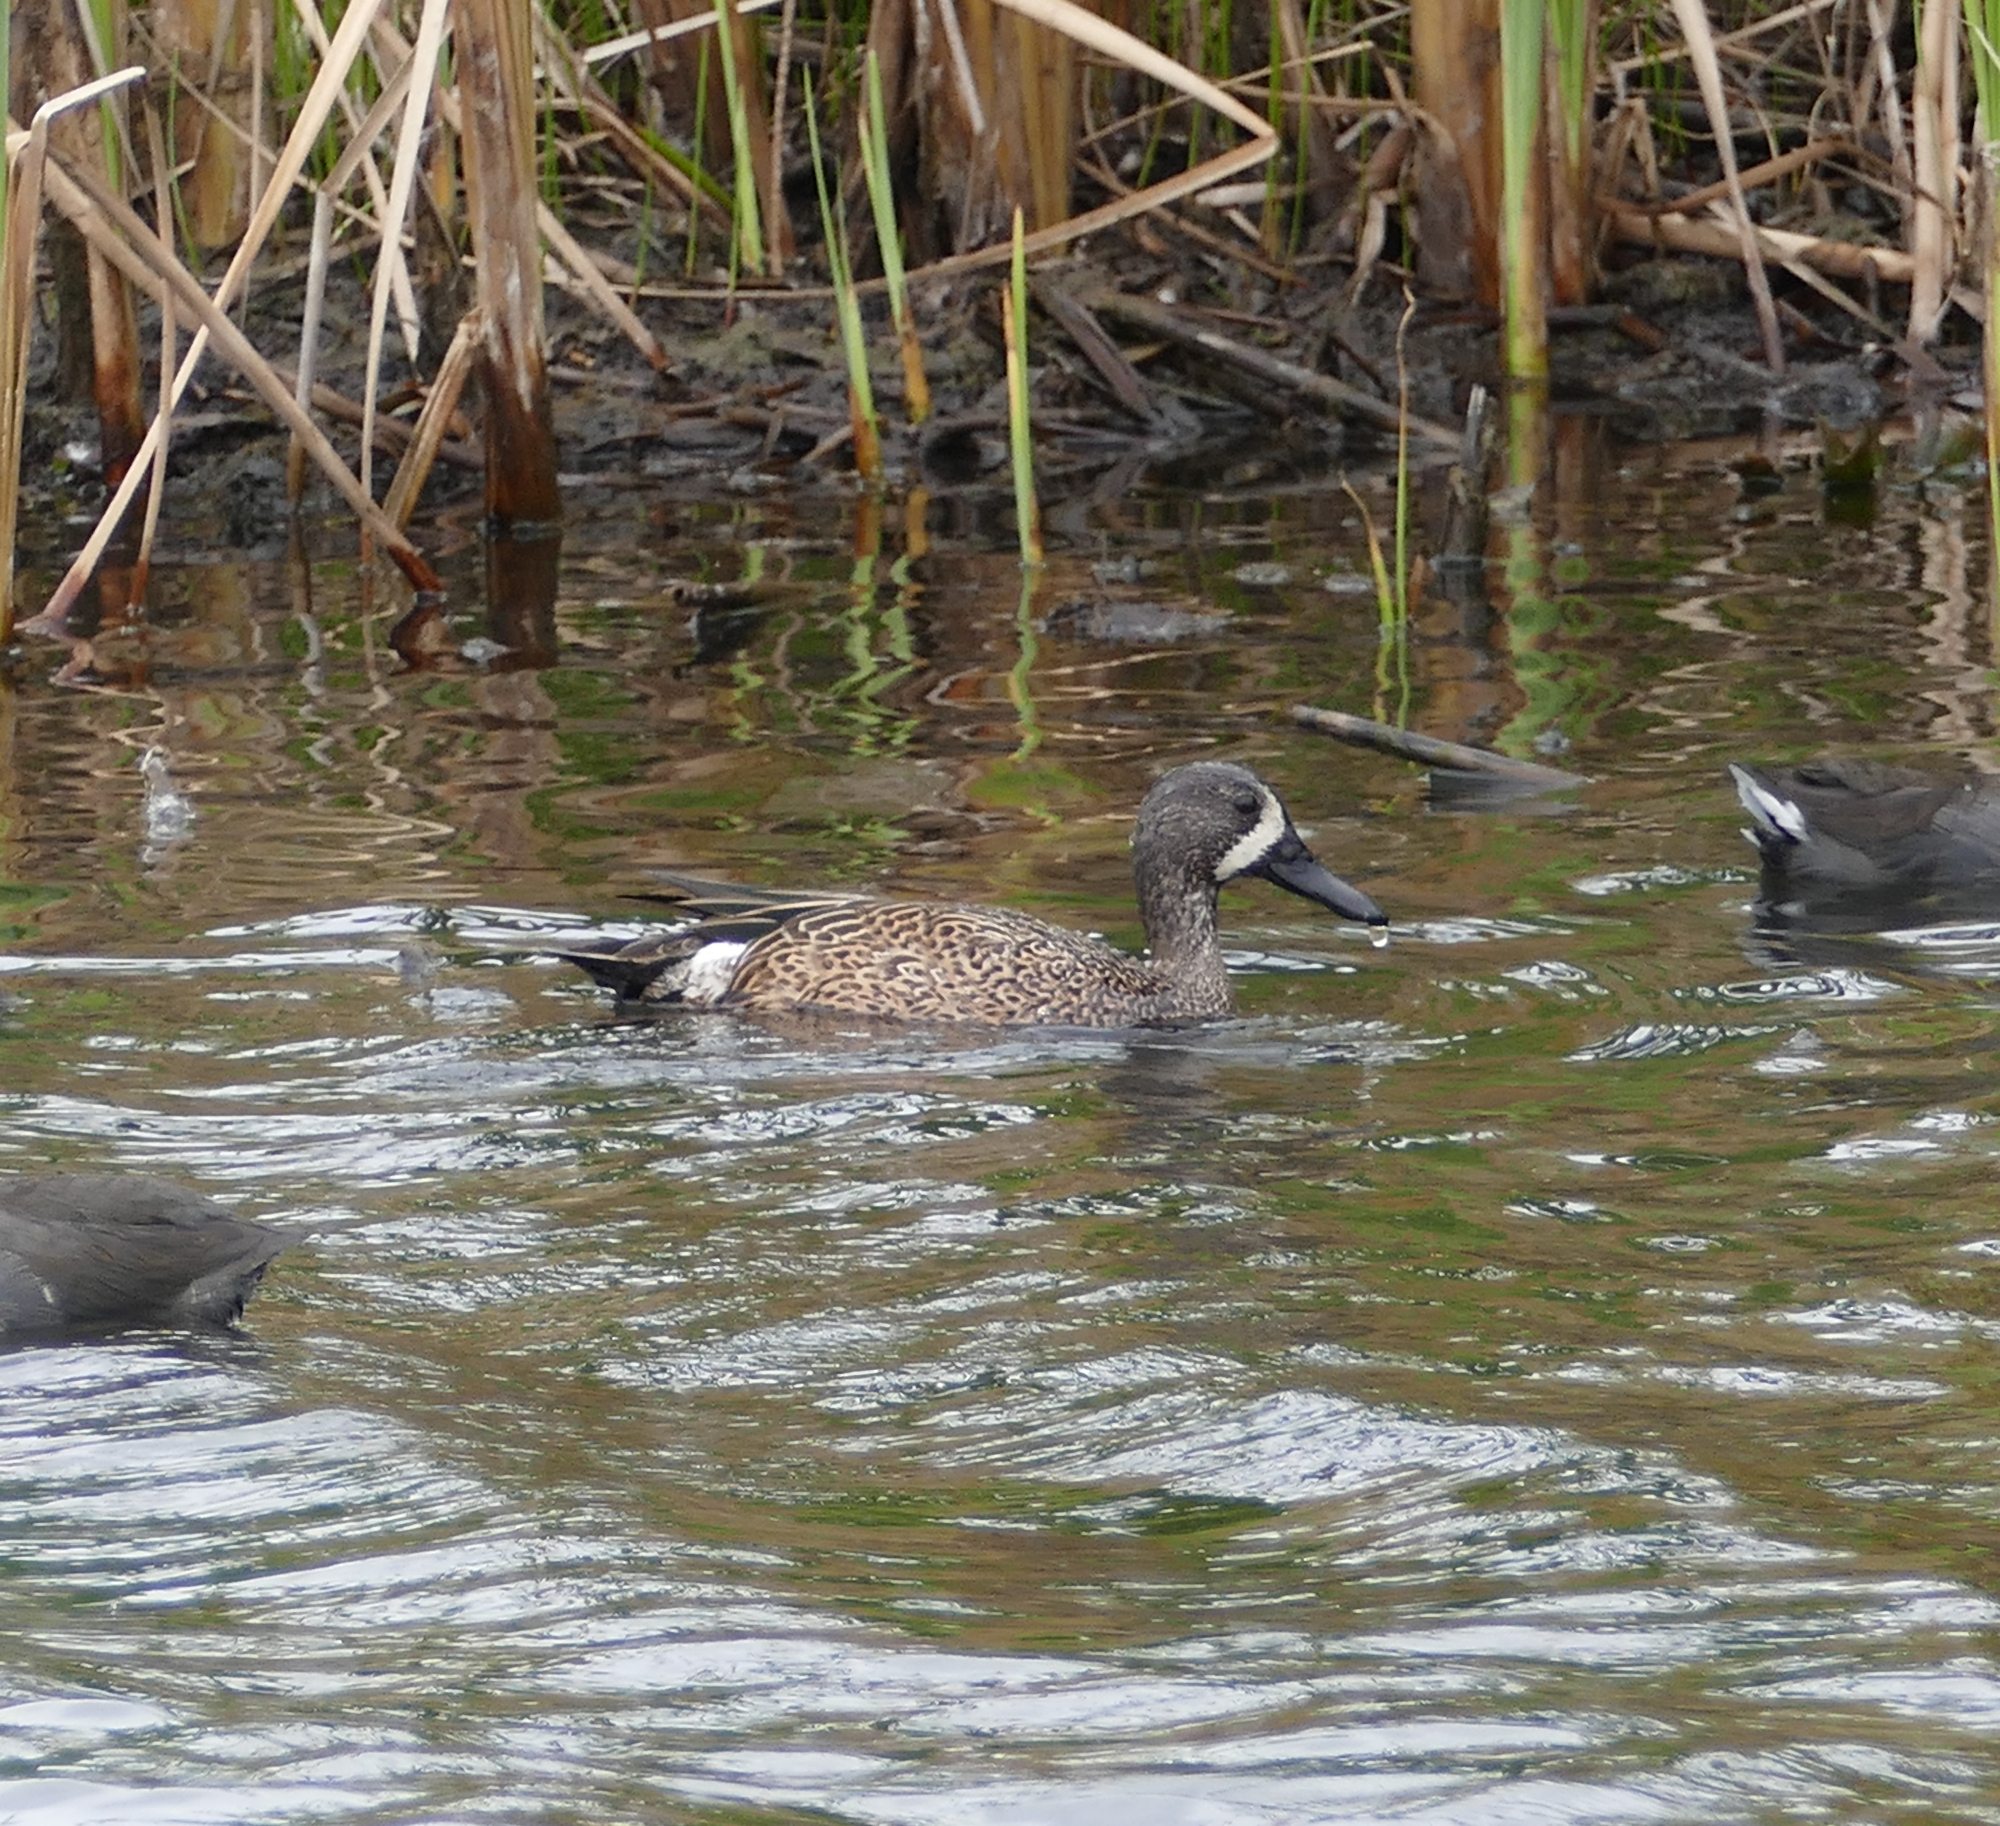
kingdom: Animalia
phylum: Chordata
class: Aves
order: Anseriformes
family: Anatidae
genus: Spatula
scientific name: Spatula discors
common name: Blue-winged teal
